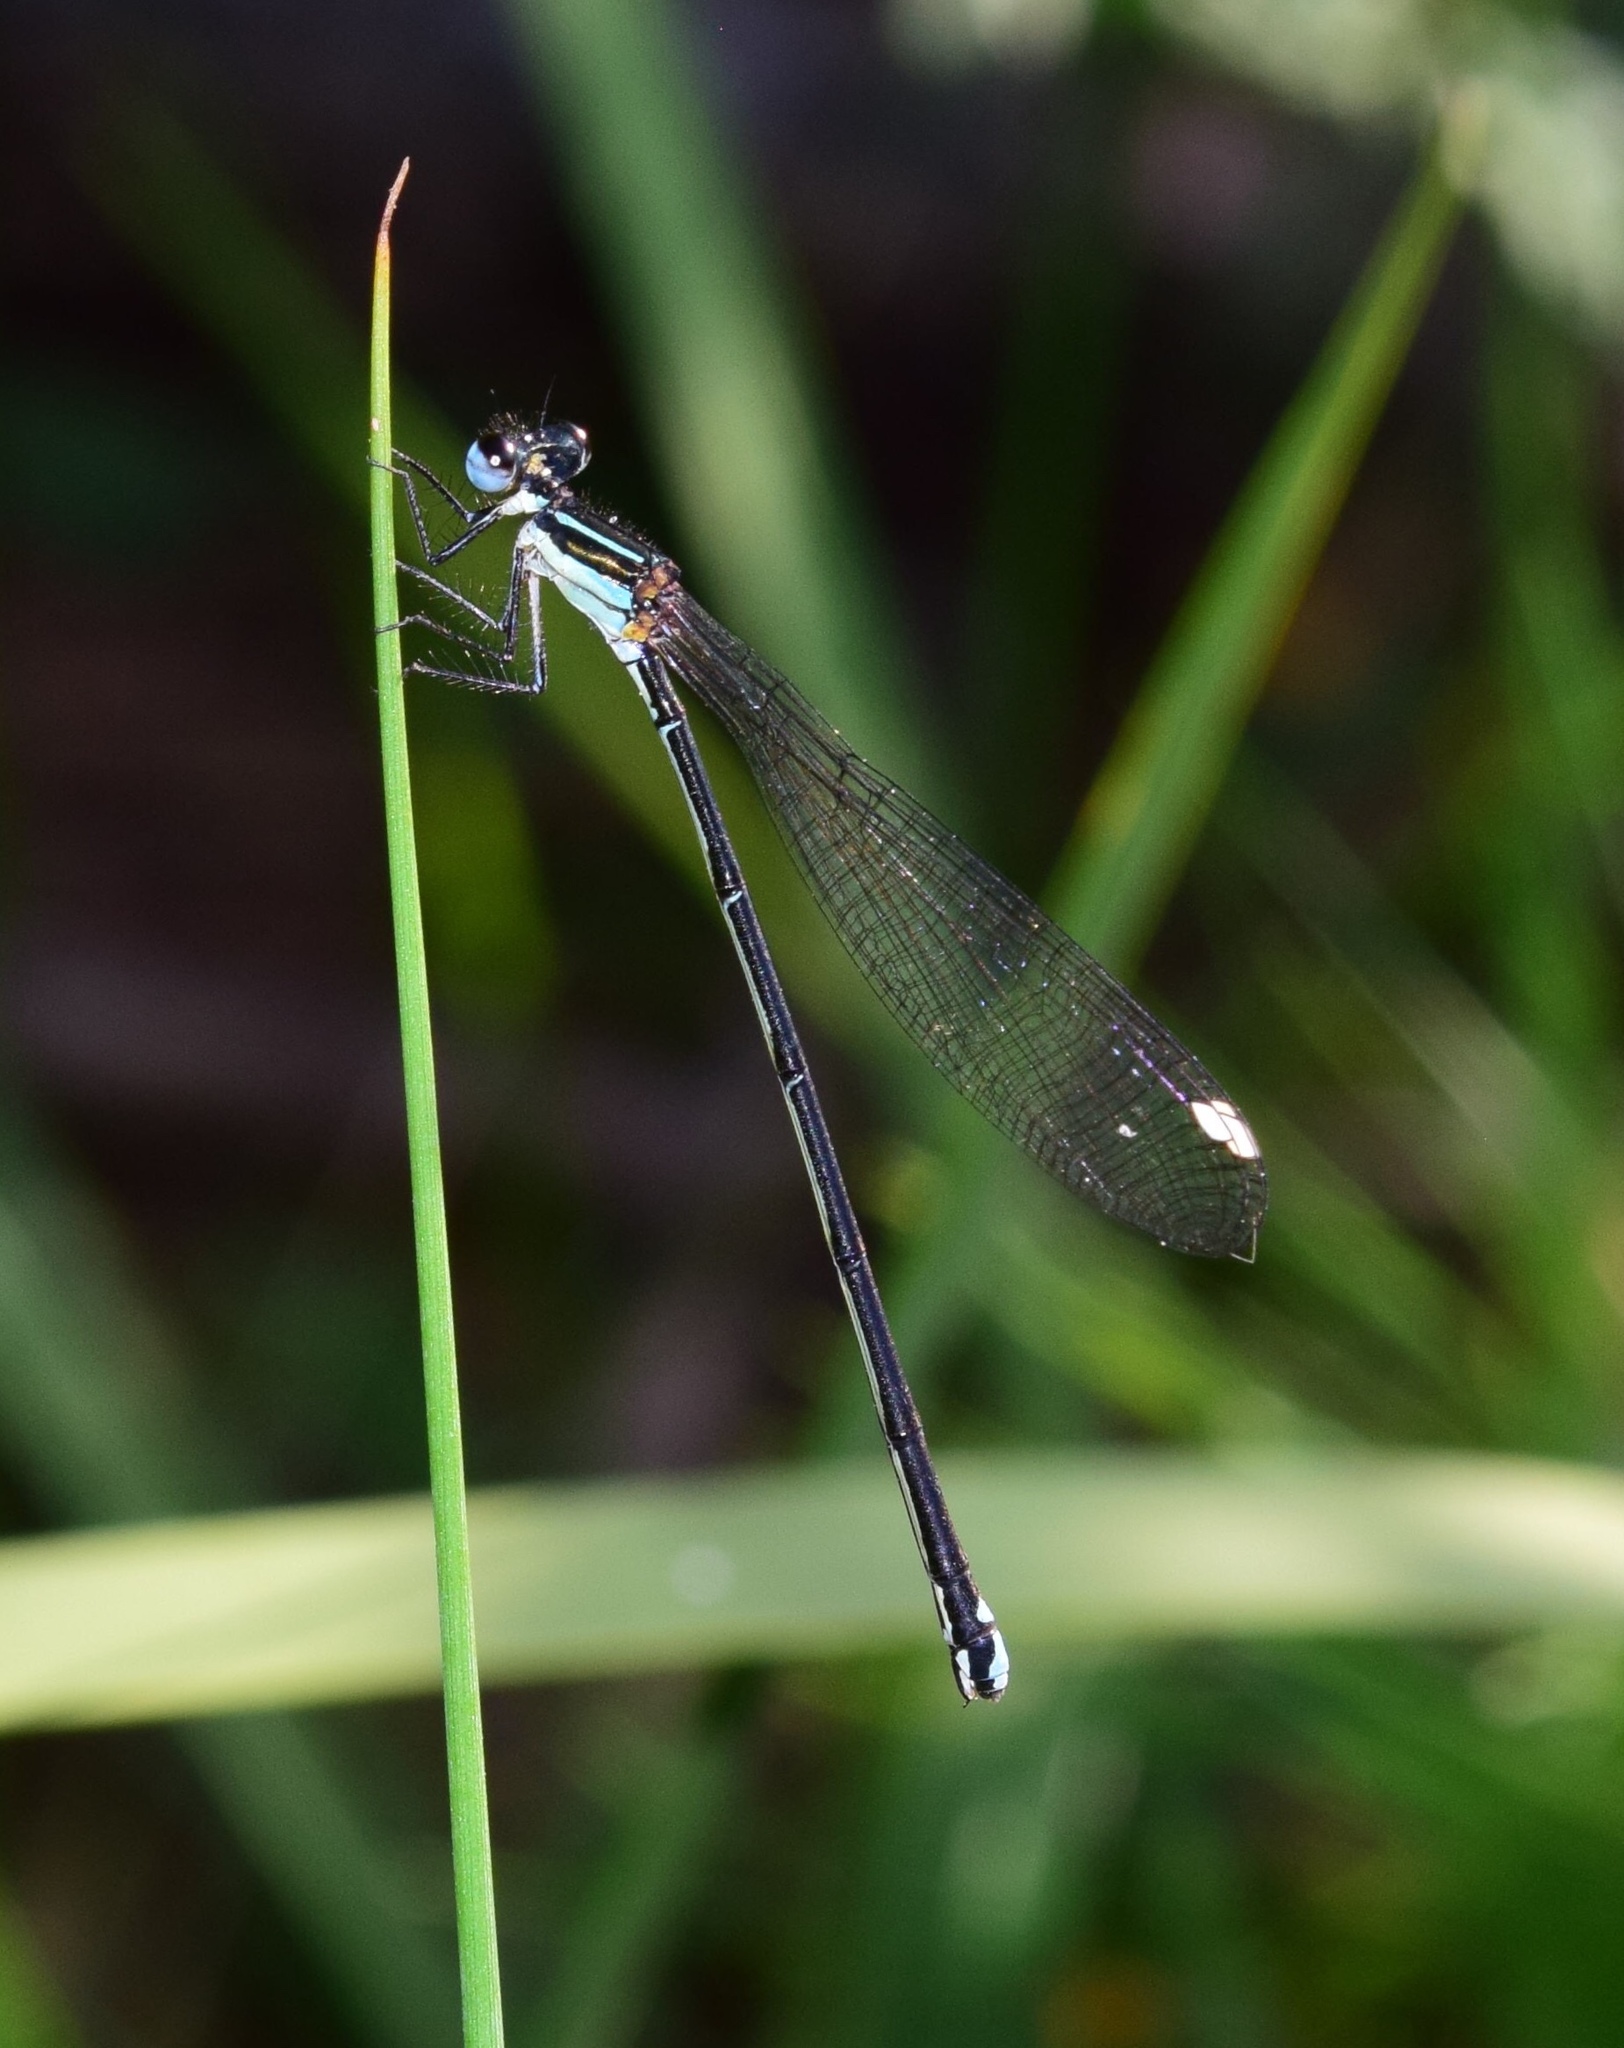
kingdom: Animalia
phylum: Arthropoda
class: Insecta
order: Odonata
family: Platycnemididae
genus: Allocnemis
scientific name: Allocnemis leucosticta
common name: Goldtail
